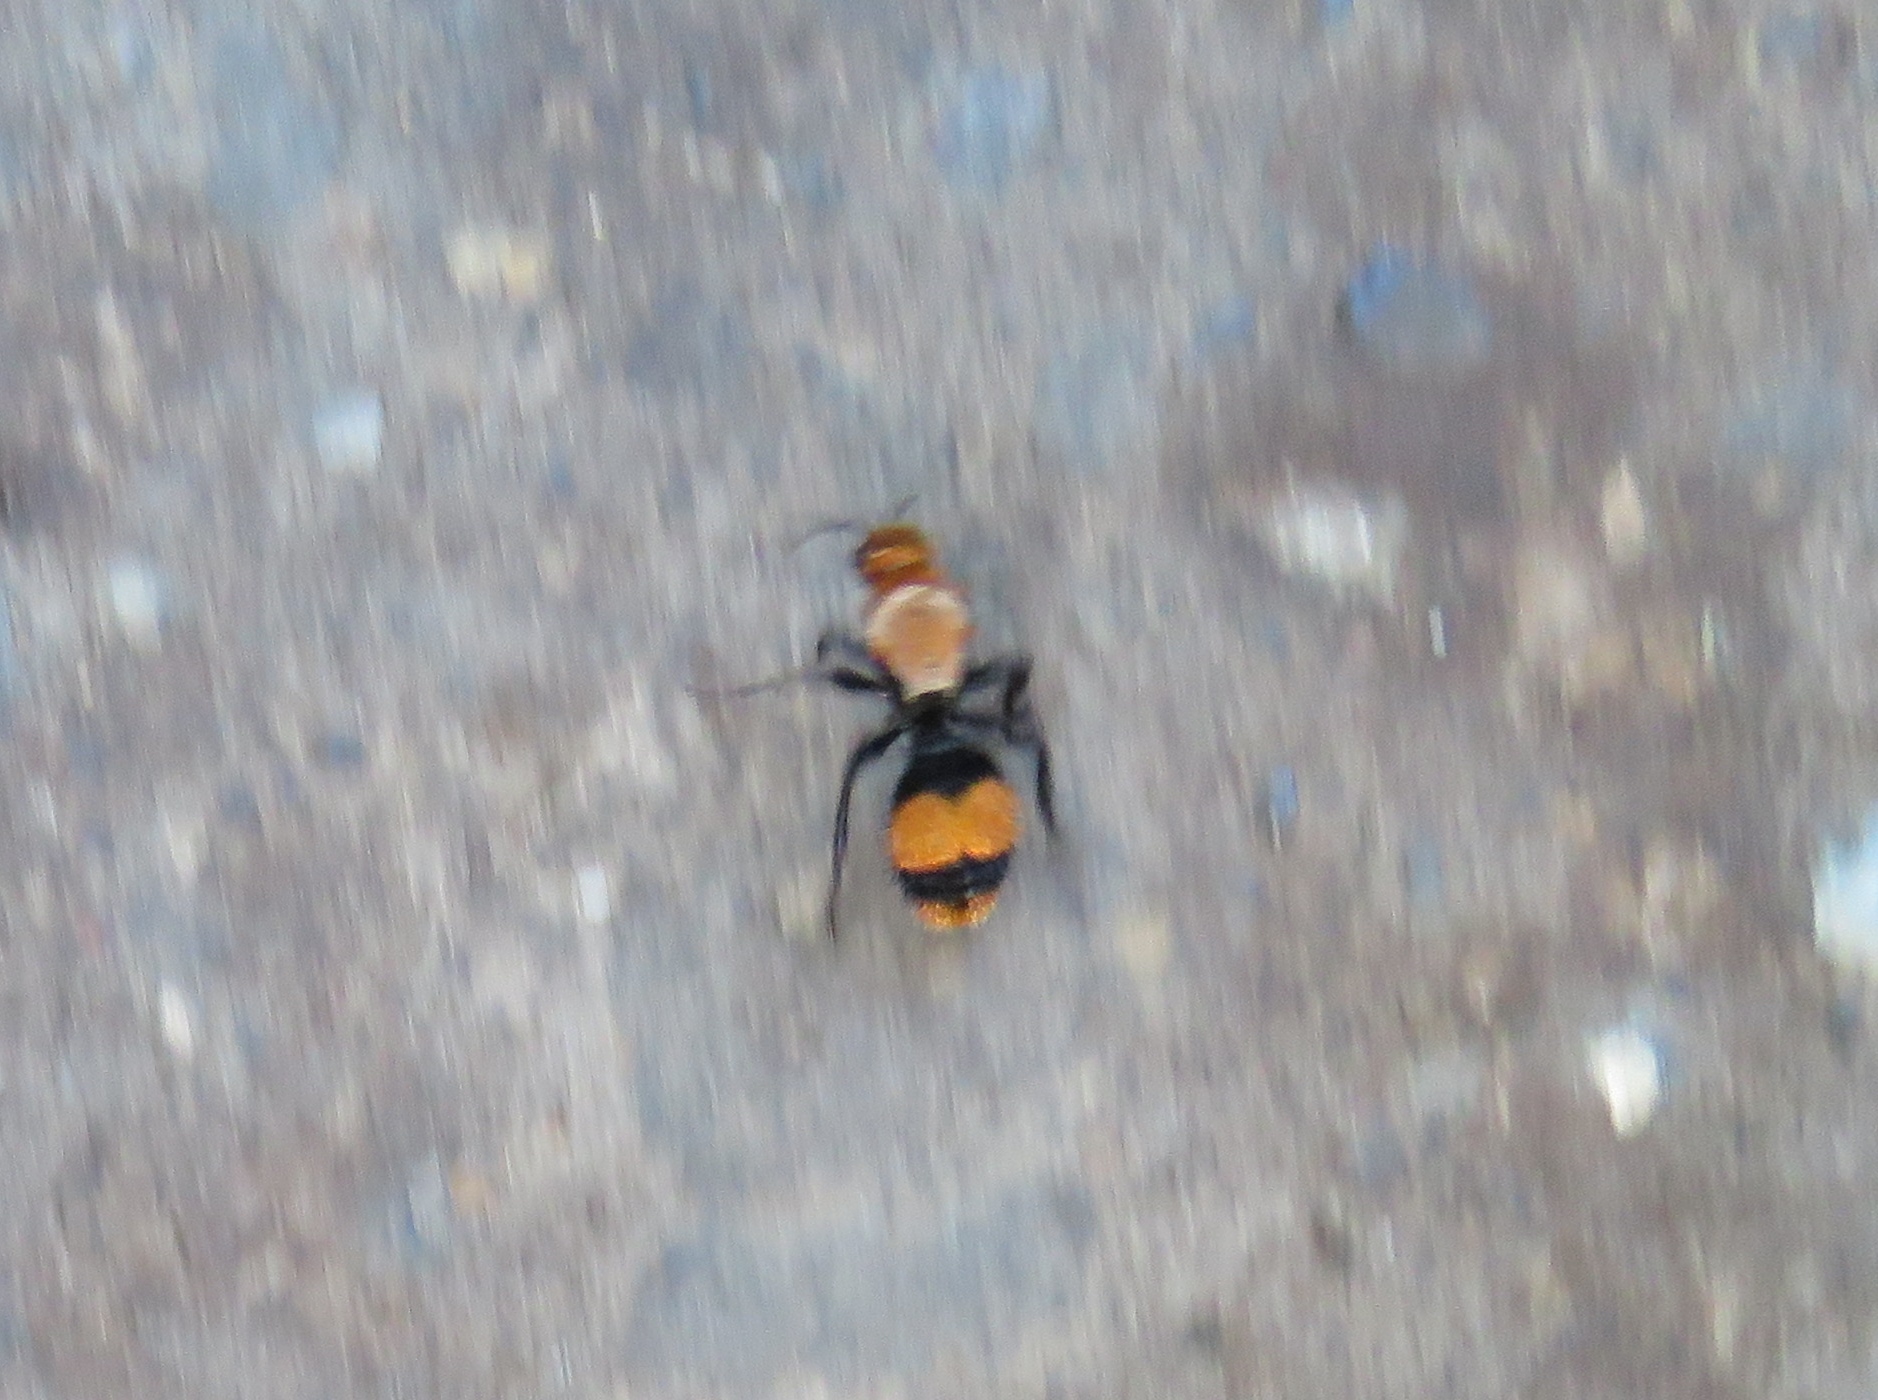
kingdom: Animalia
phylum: Arthropoda
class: Insecta
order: Hymenoptera
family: Mutillidae
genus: Dasymutilla
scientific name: Dasymutilla occidentalis
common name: Common eastern velvet ant
